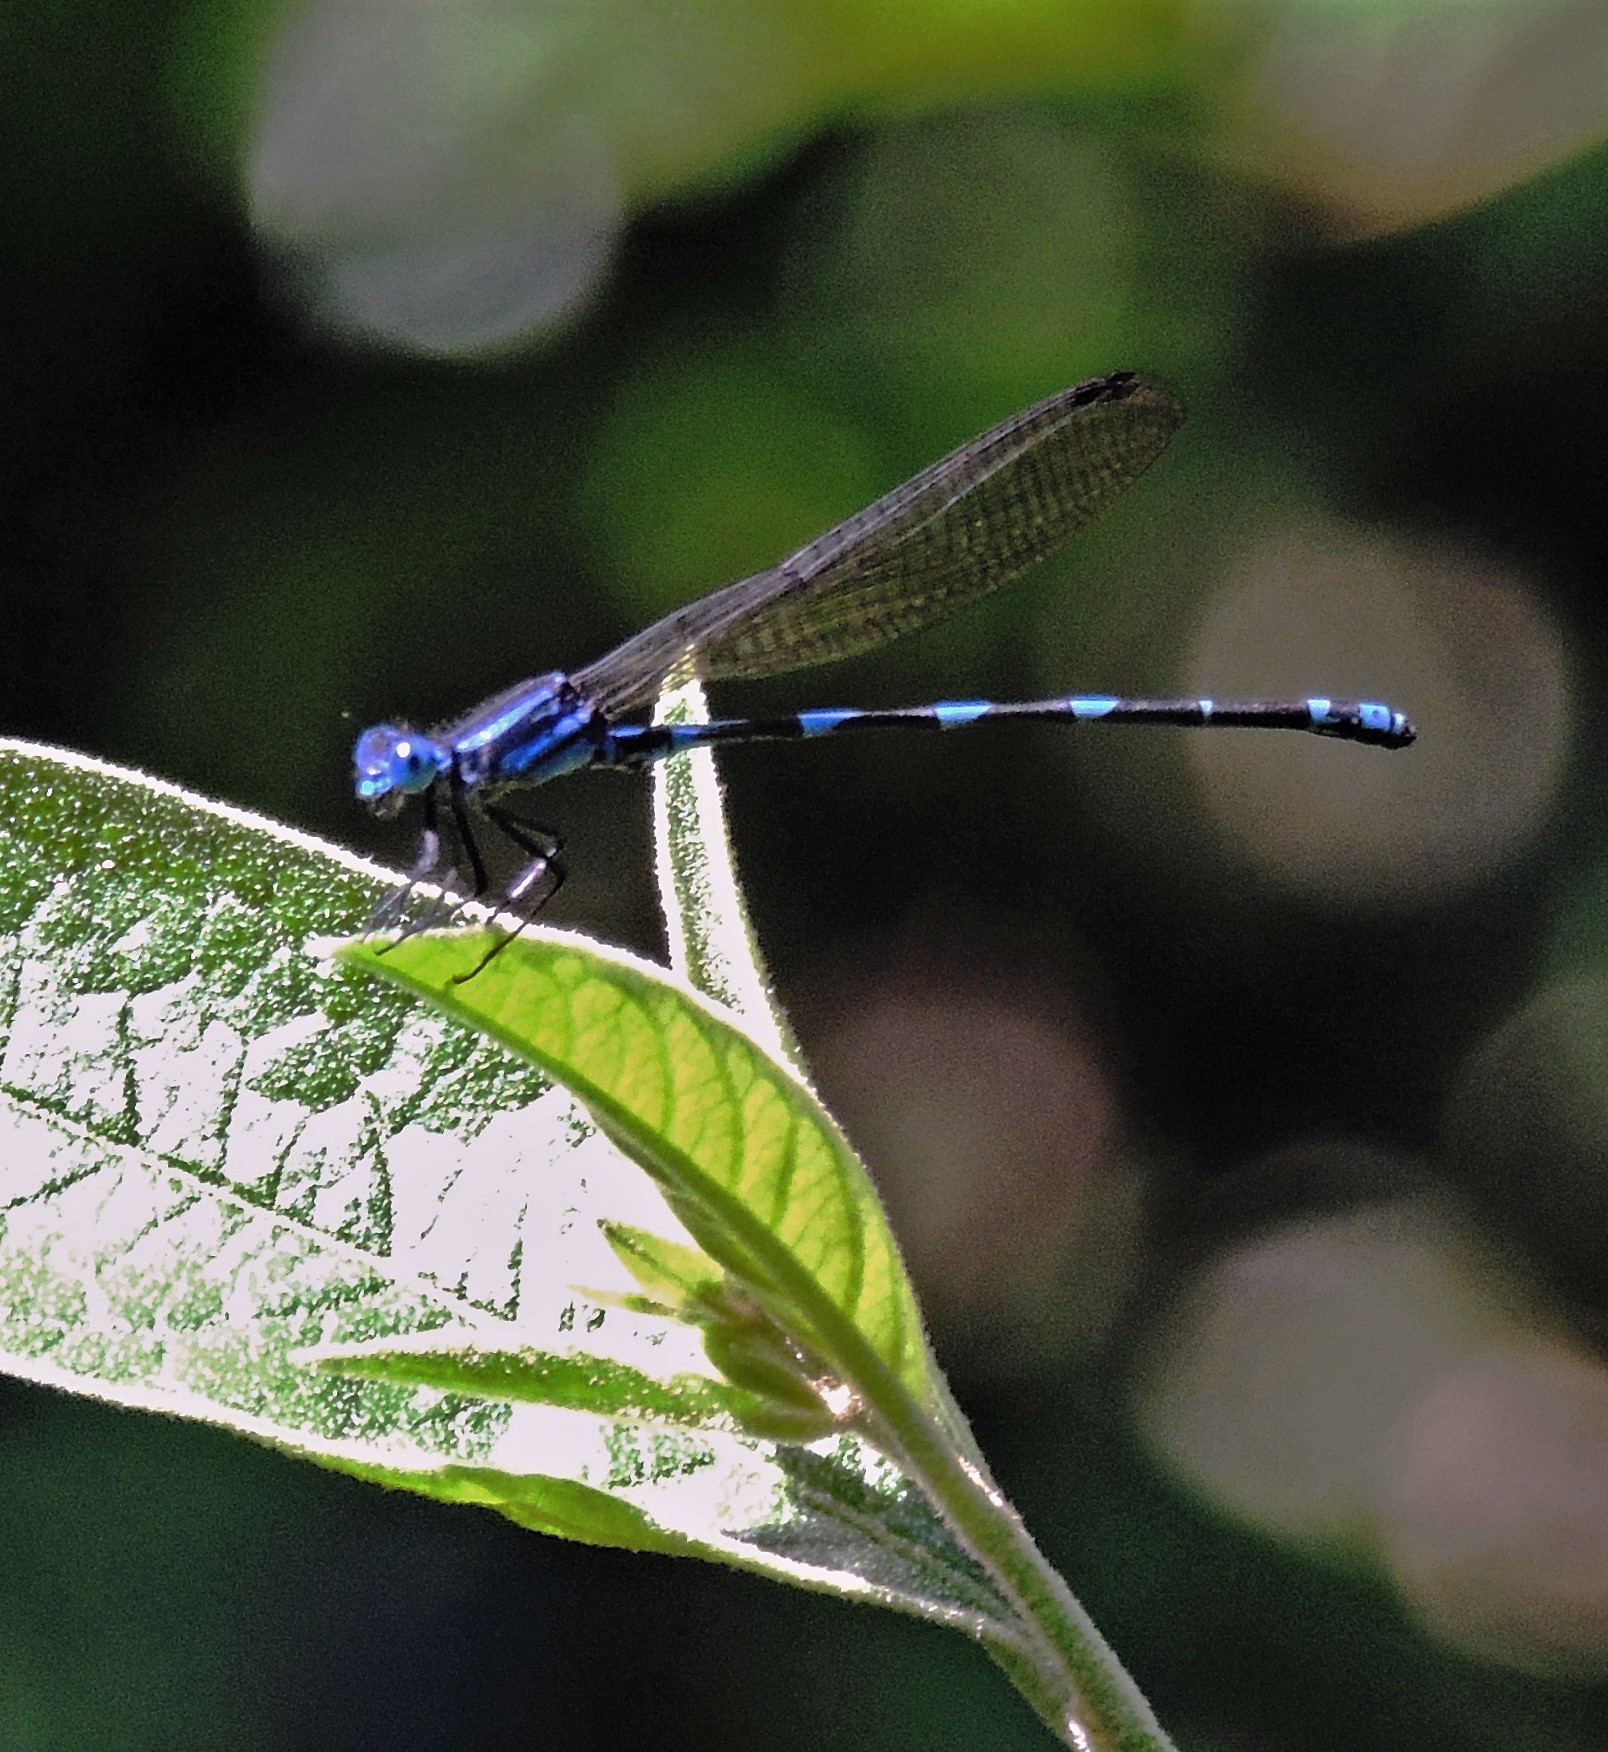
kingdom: Animalia
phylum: Arthropoda
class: Insecta
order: Odonata
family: Coenagrionidae
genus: Argia
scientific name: Argia serva
